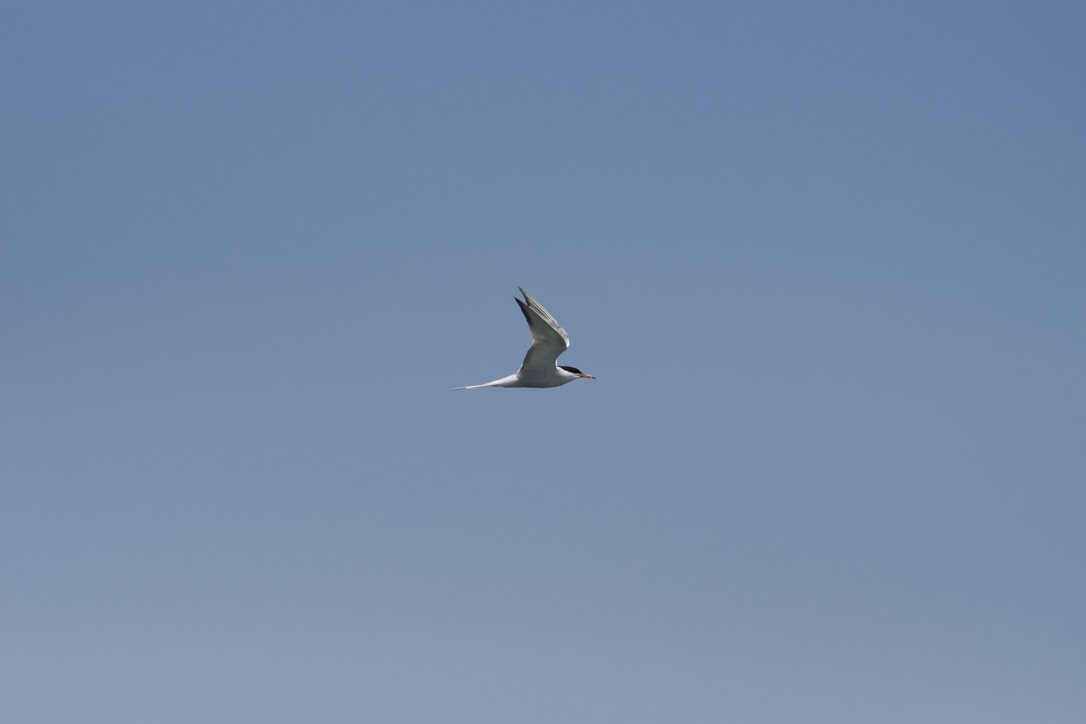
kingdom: Animalia
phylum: Chordata
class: Aves
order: Charadriiformes
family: Laridae
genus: Sterna
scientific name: Sterna hirundo
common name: Common tern
